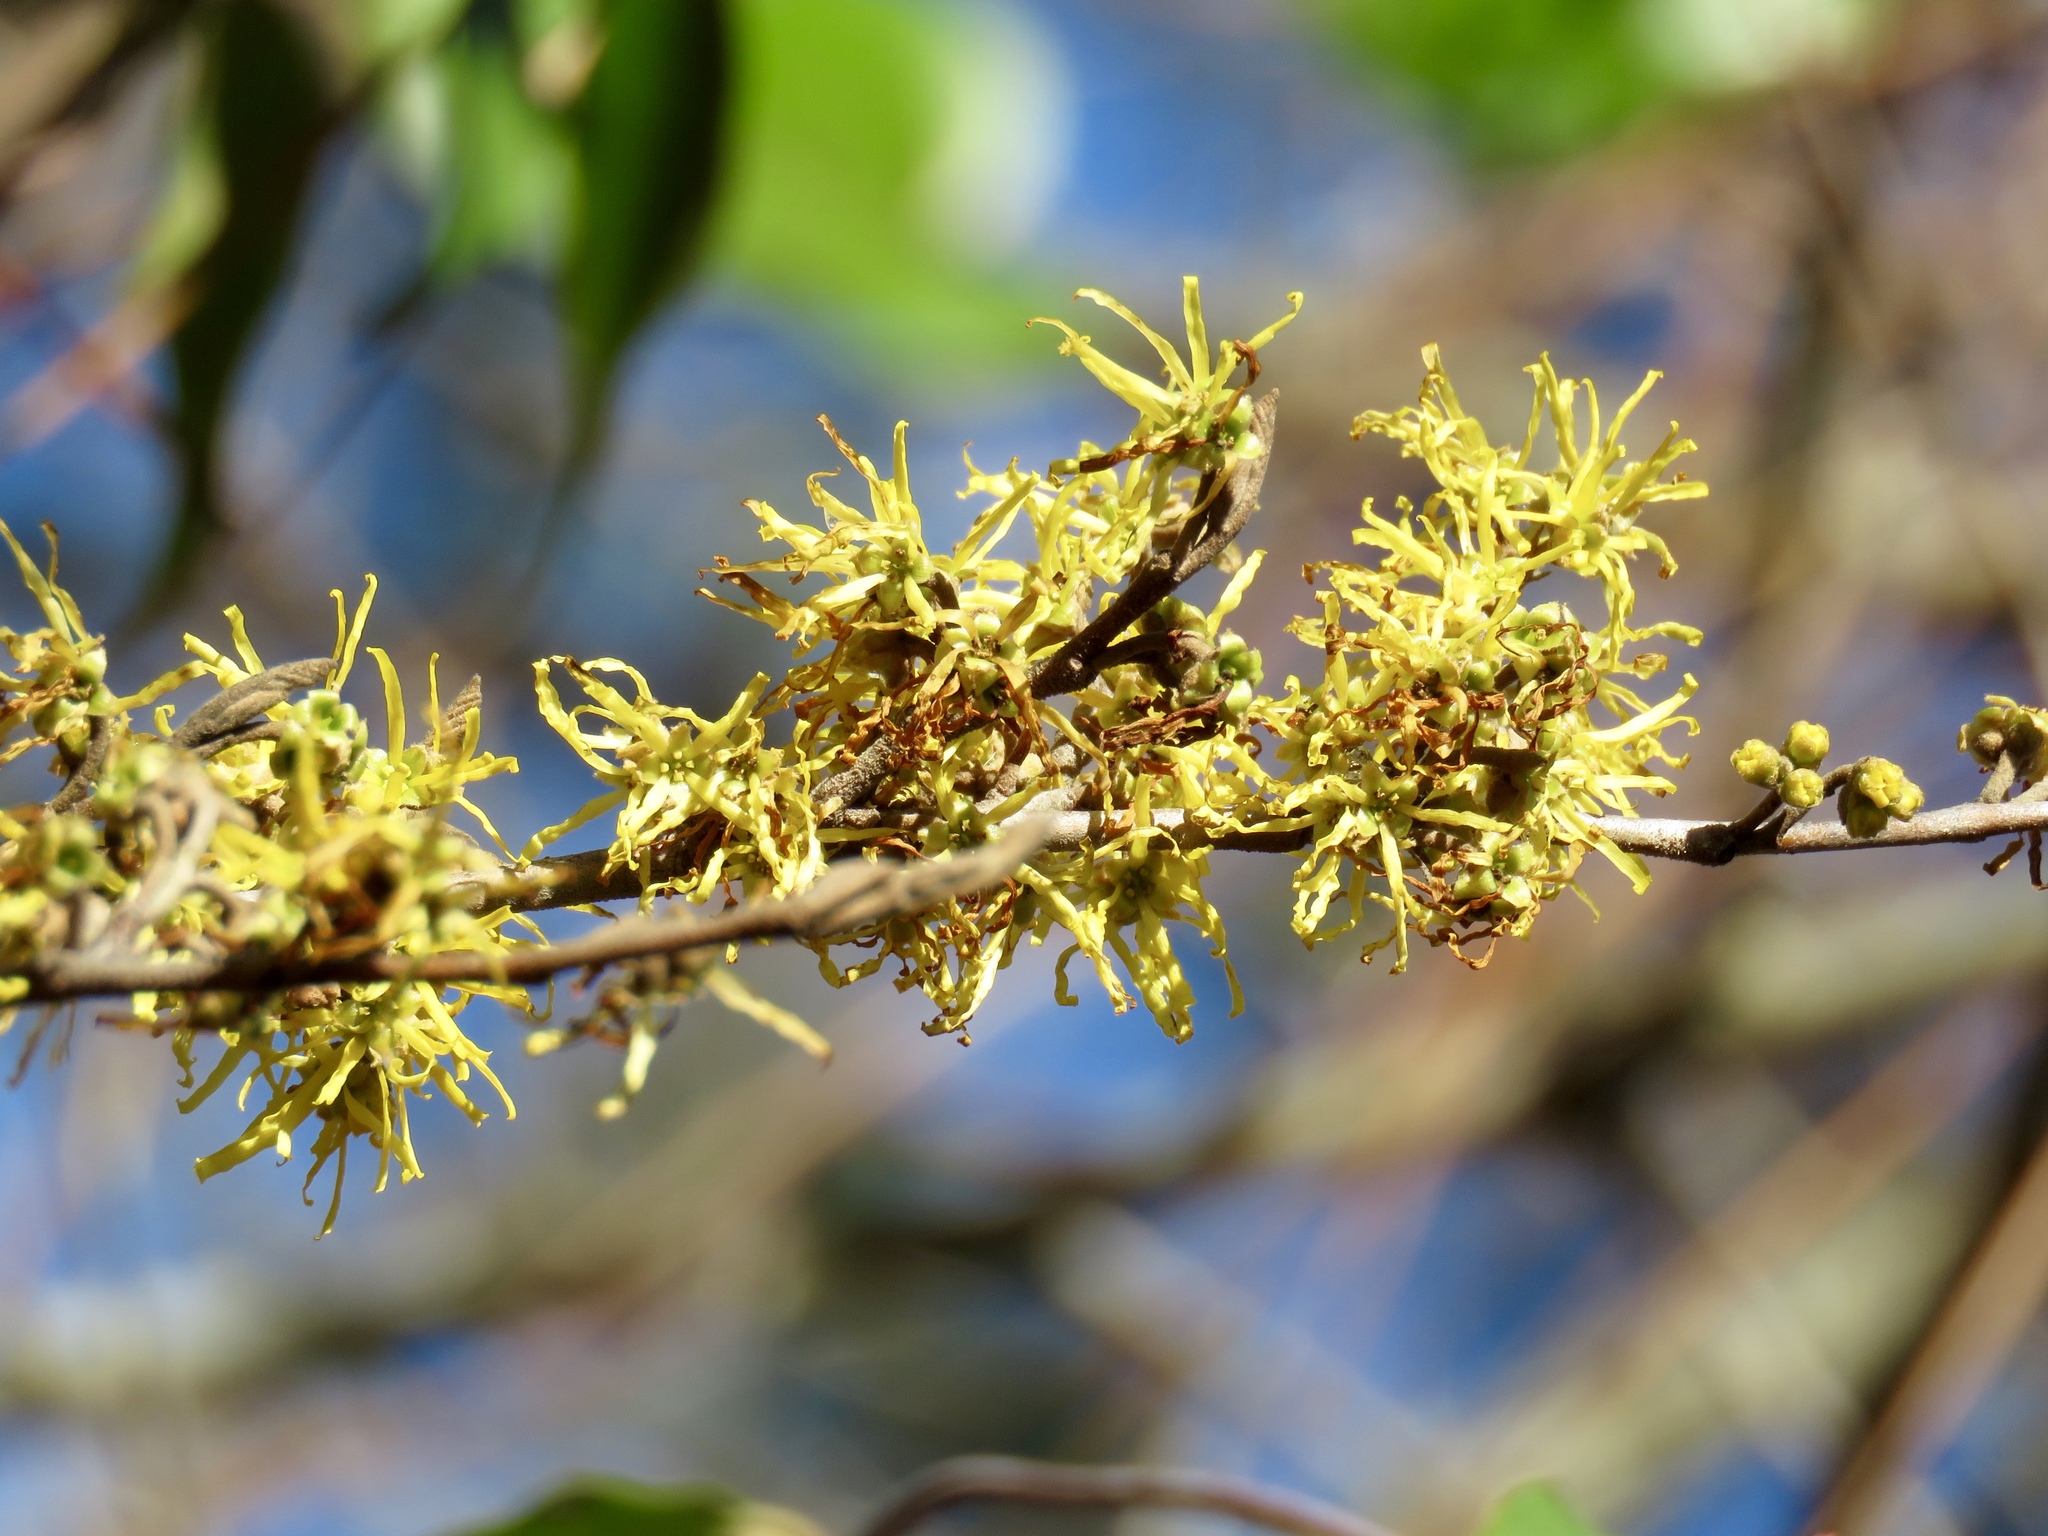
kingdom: Plantae
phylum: Tracheophyta
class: Magnoliopsida
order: Saxifragales
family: Hamamelidaceae
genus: Hamamelis
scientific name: Hamamelis virginiana
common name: Witch-hazel
